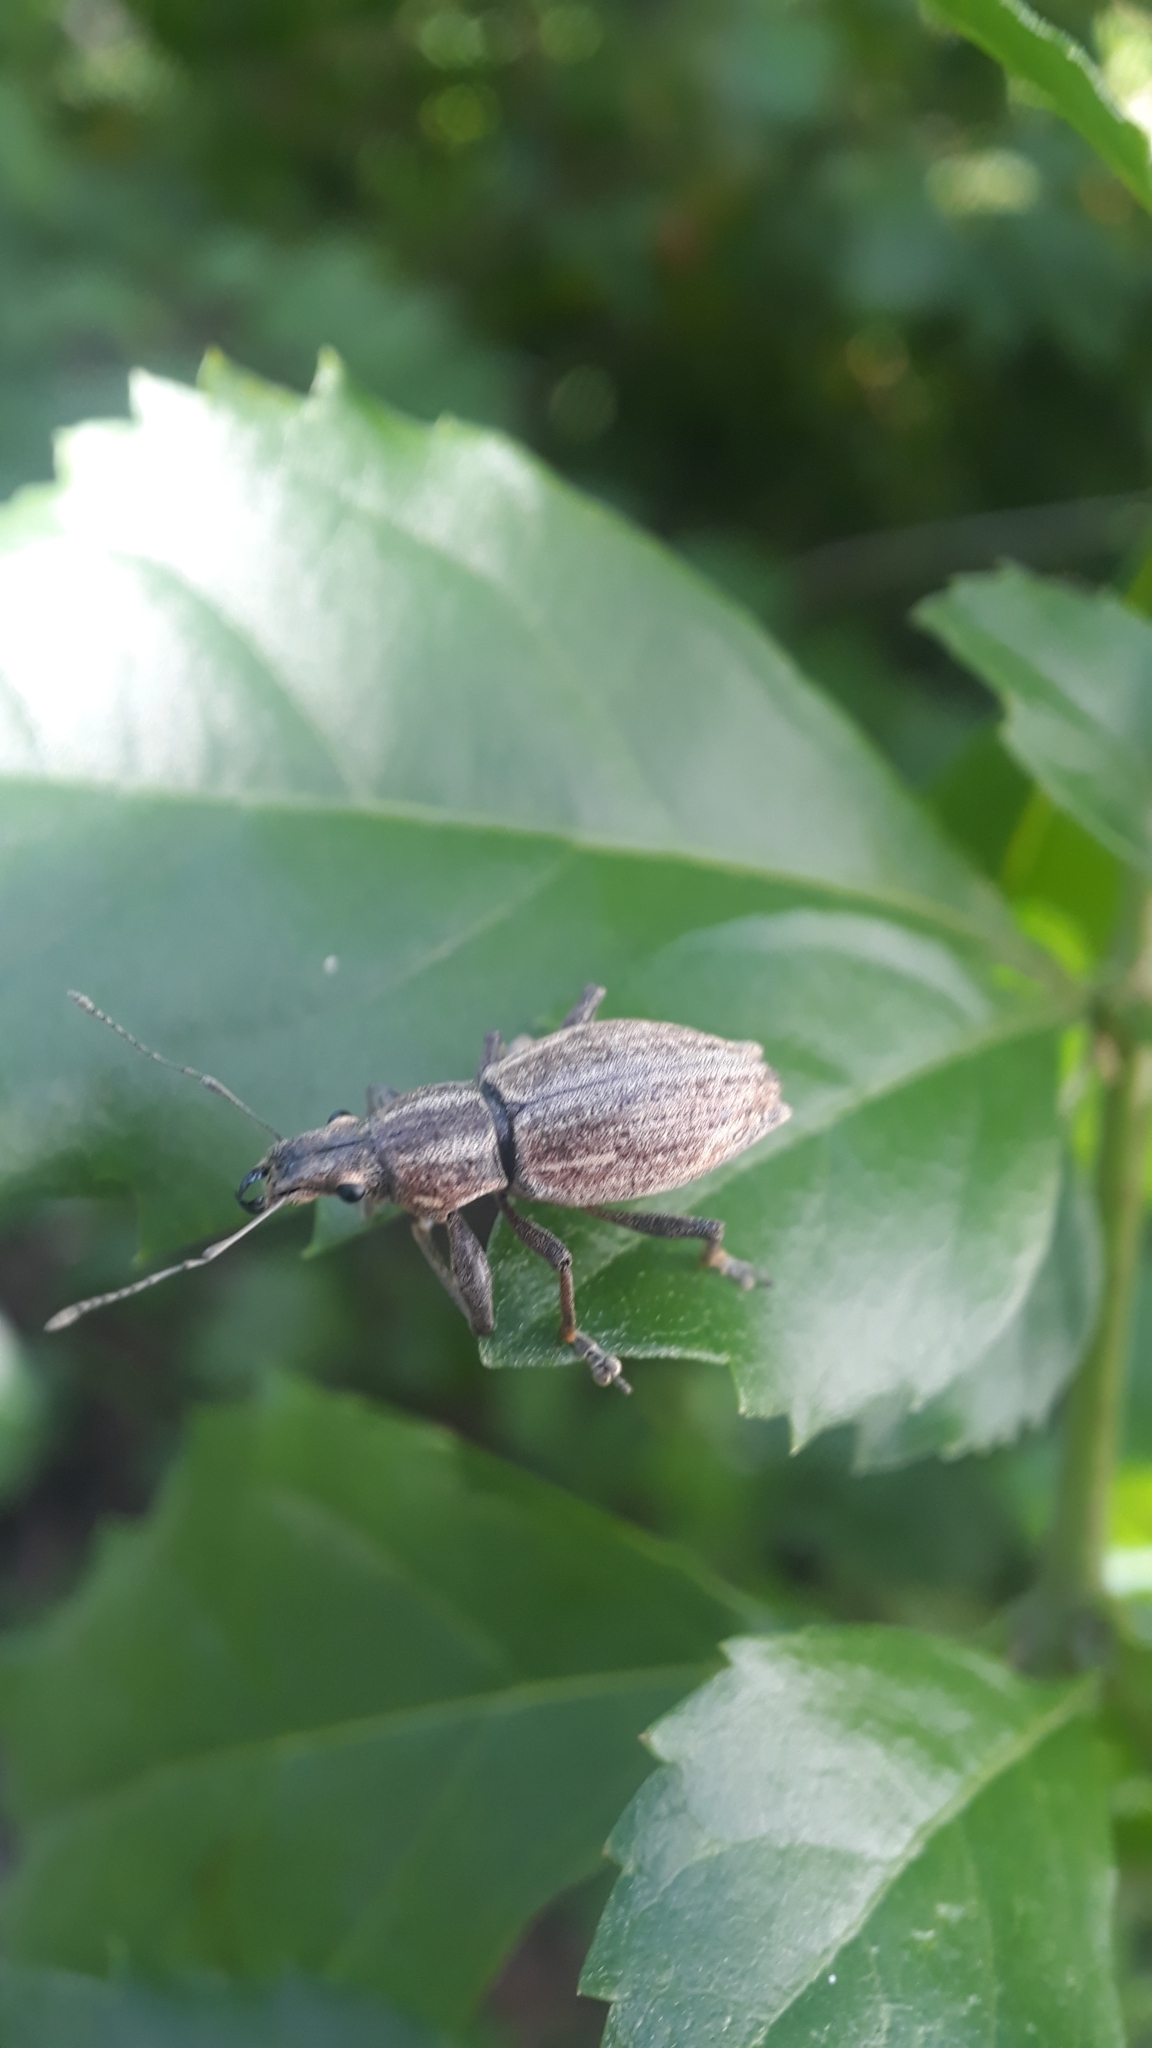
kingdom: Animalia
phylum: Arthropoda
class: Insecta
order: Coleoptera
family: Curculionidae
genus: Naupactus
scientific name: Naupactus xanthographus
